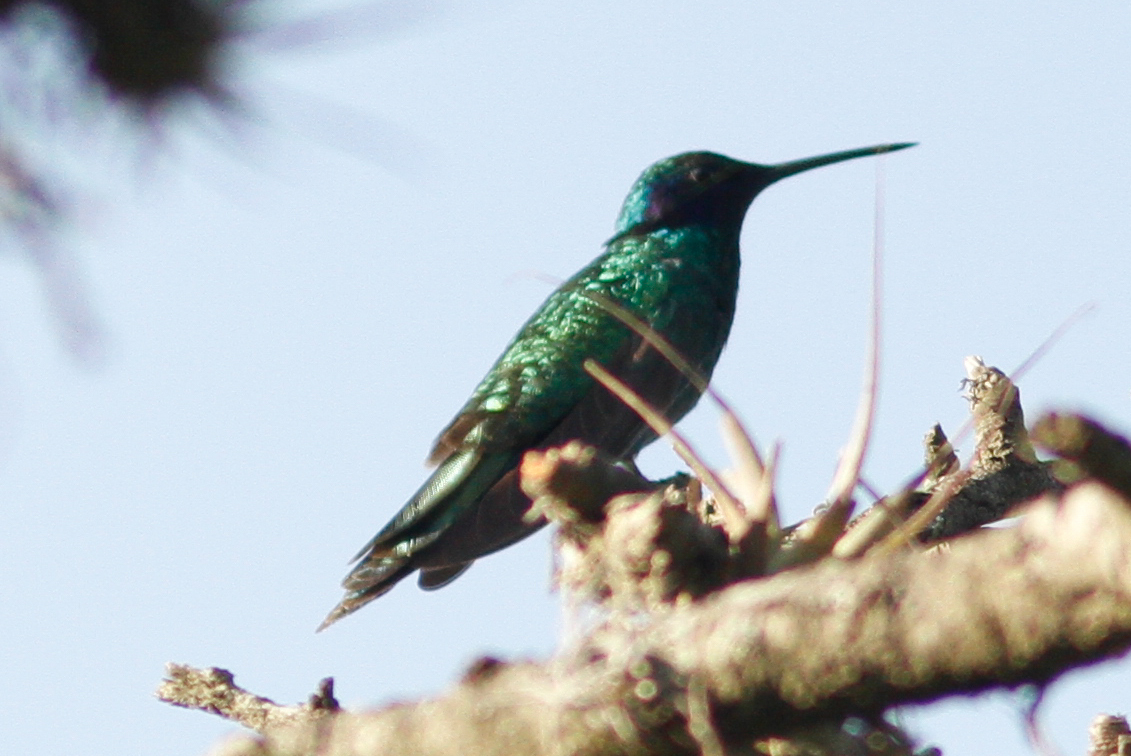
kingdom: Animalia
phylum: Chordata
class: Aves
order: Apodiformes
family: Trochilidae
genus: Colibri
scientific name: Colibri coruscans
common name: Sparkling violetear
